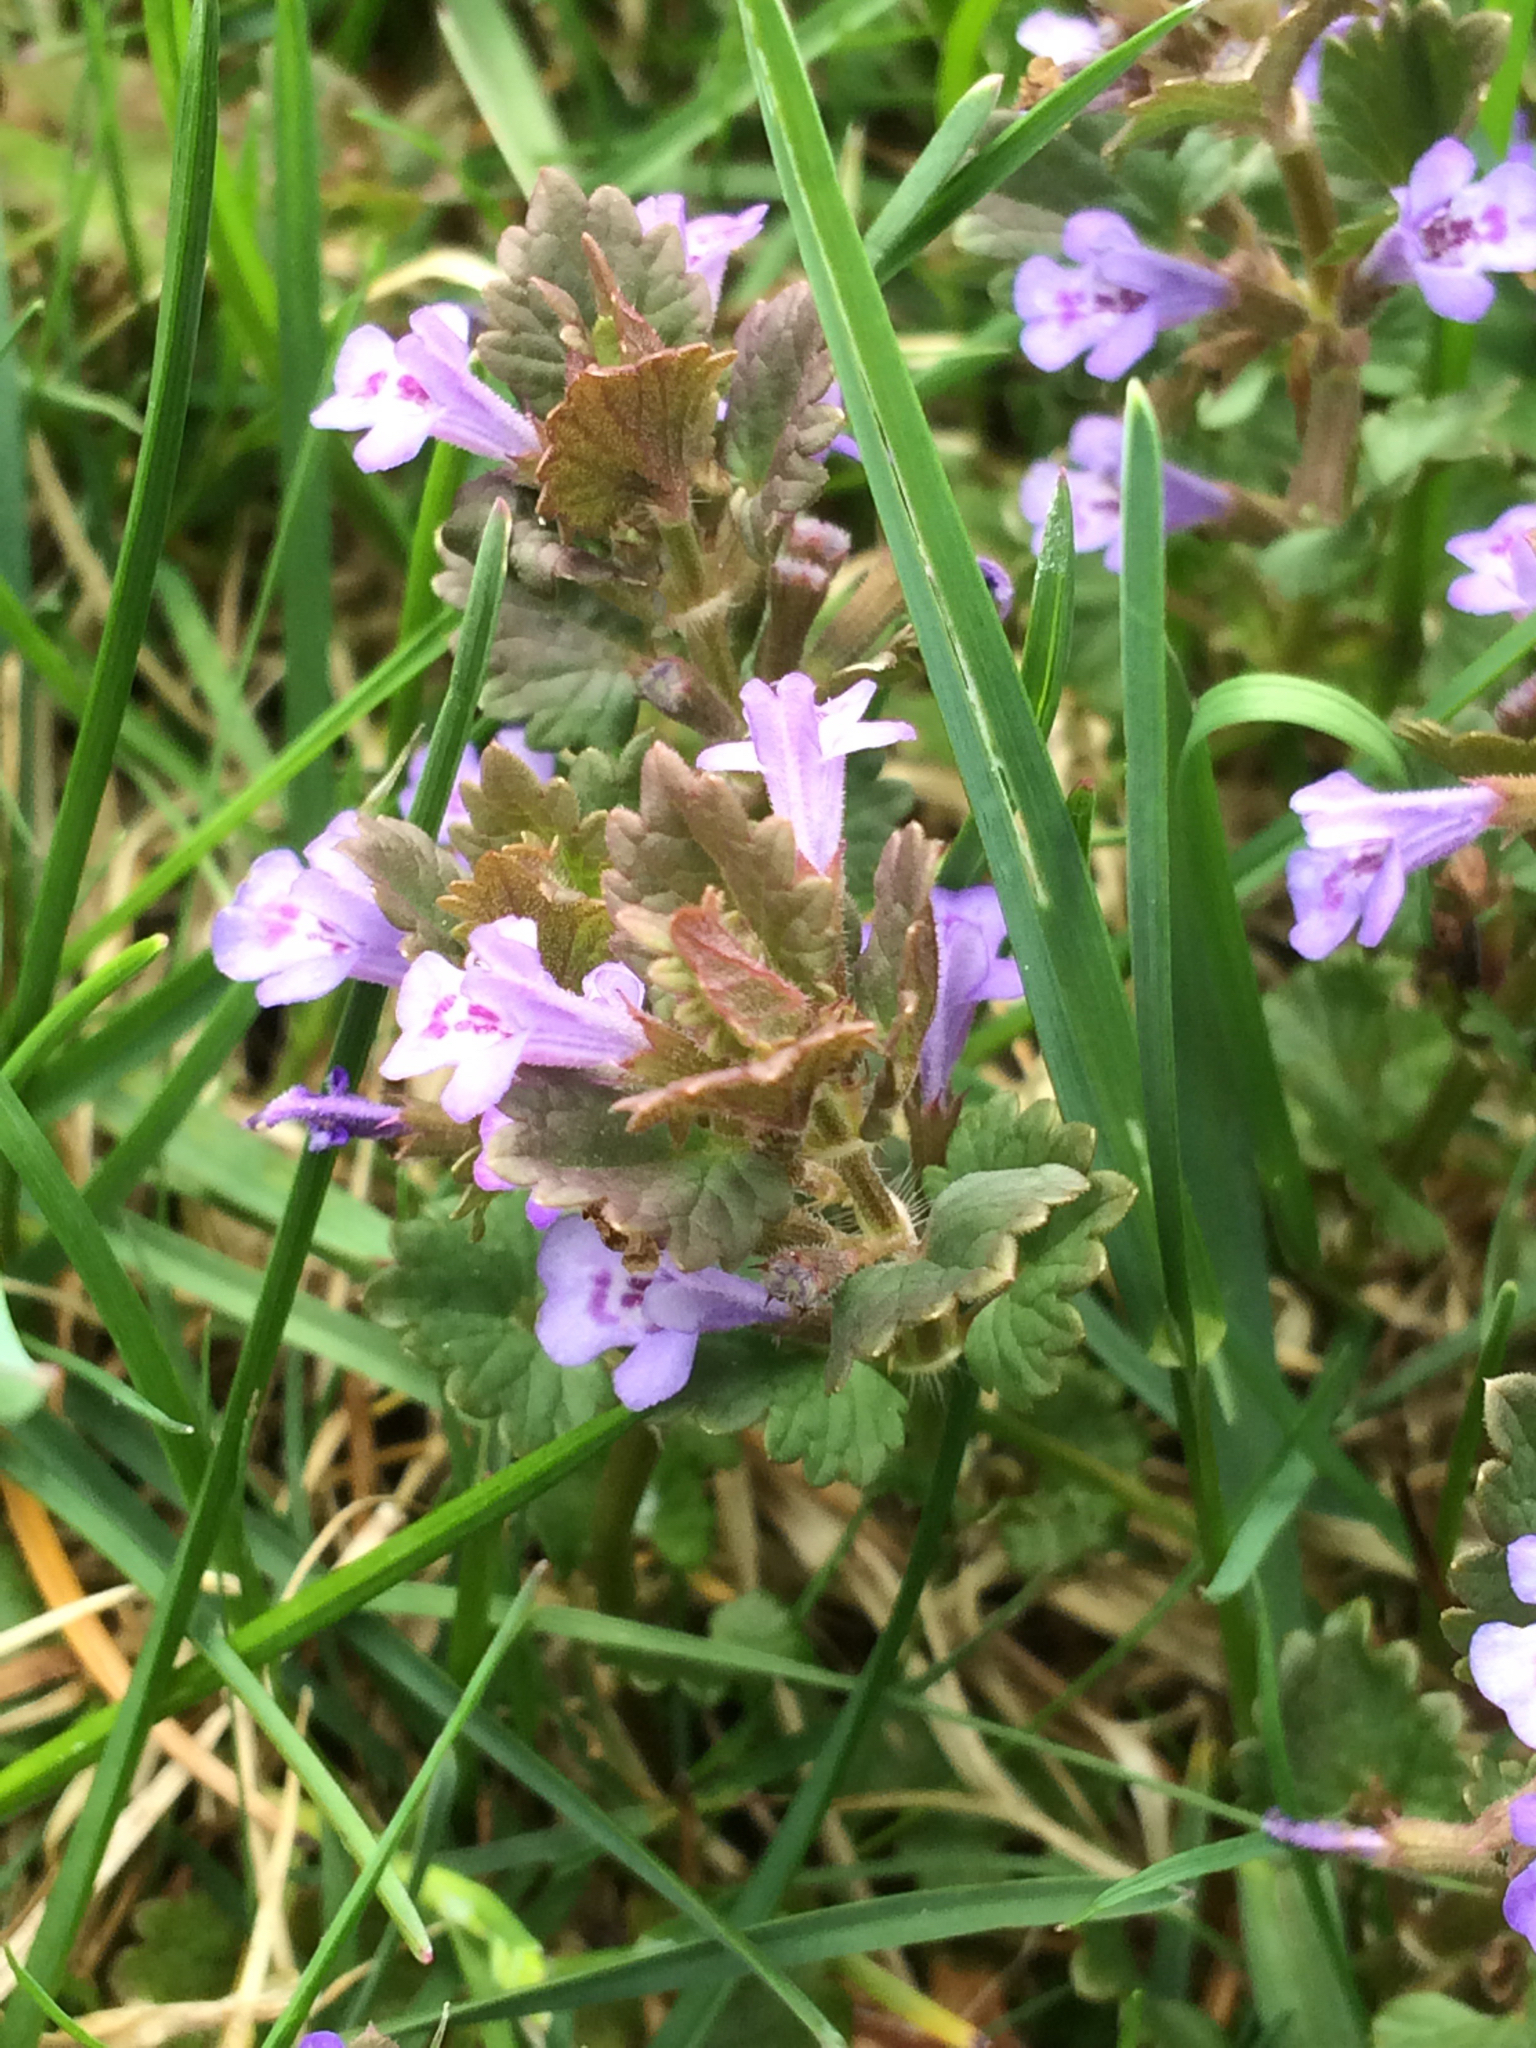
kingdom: Plantae
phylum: Tracheophyta
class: Magnoliopsida
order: Lamiales
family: Lamiaceae
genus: Glechoma
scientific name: Glechoma hederacea
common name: Ground ivy
